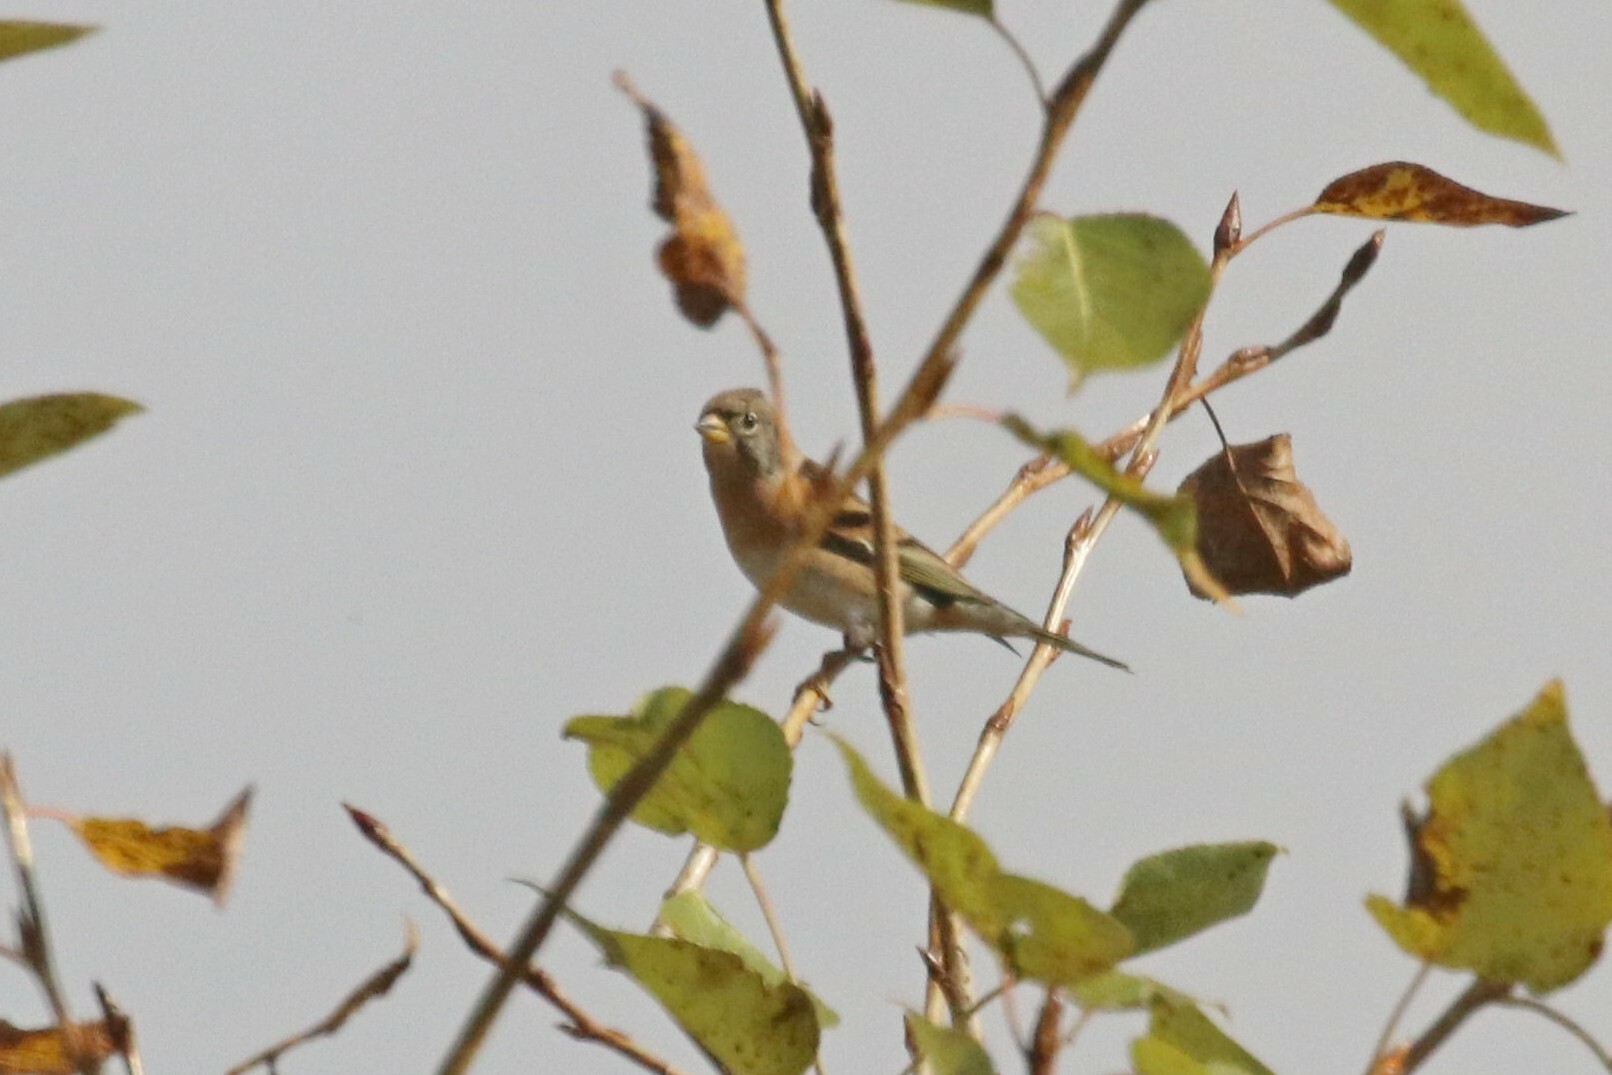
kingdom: Animalia
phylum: Chordata
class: Aves
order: Passeriformes
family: Fringillidae
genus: Fringilla
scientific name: Fringilla montifringilla
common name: Brambling
